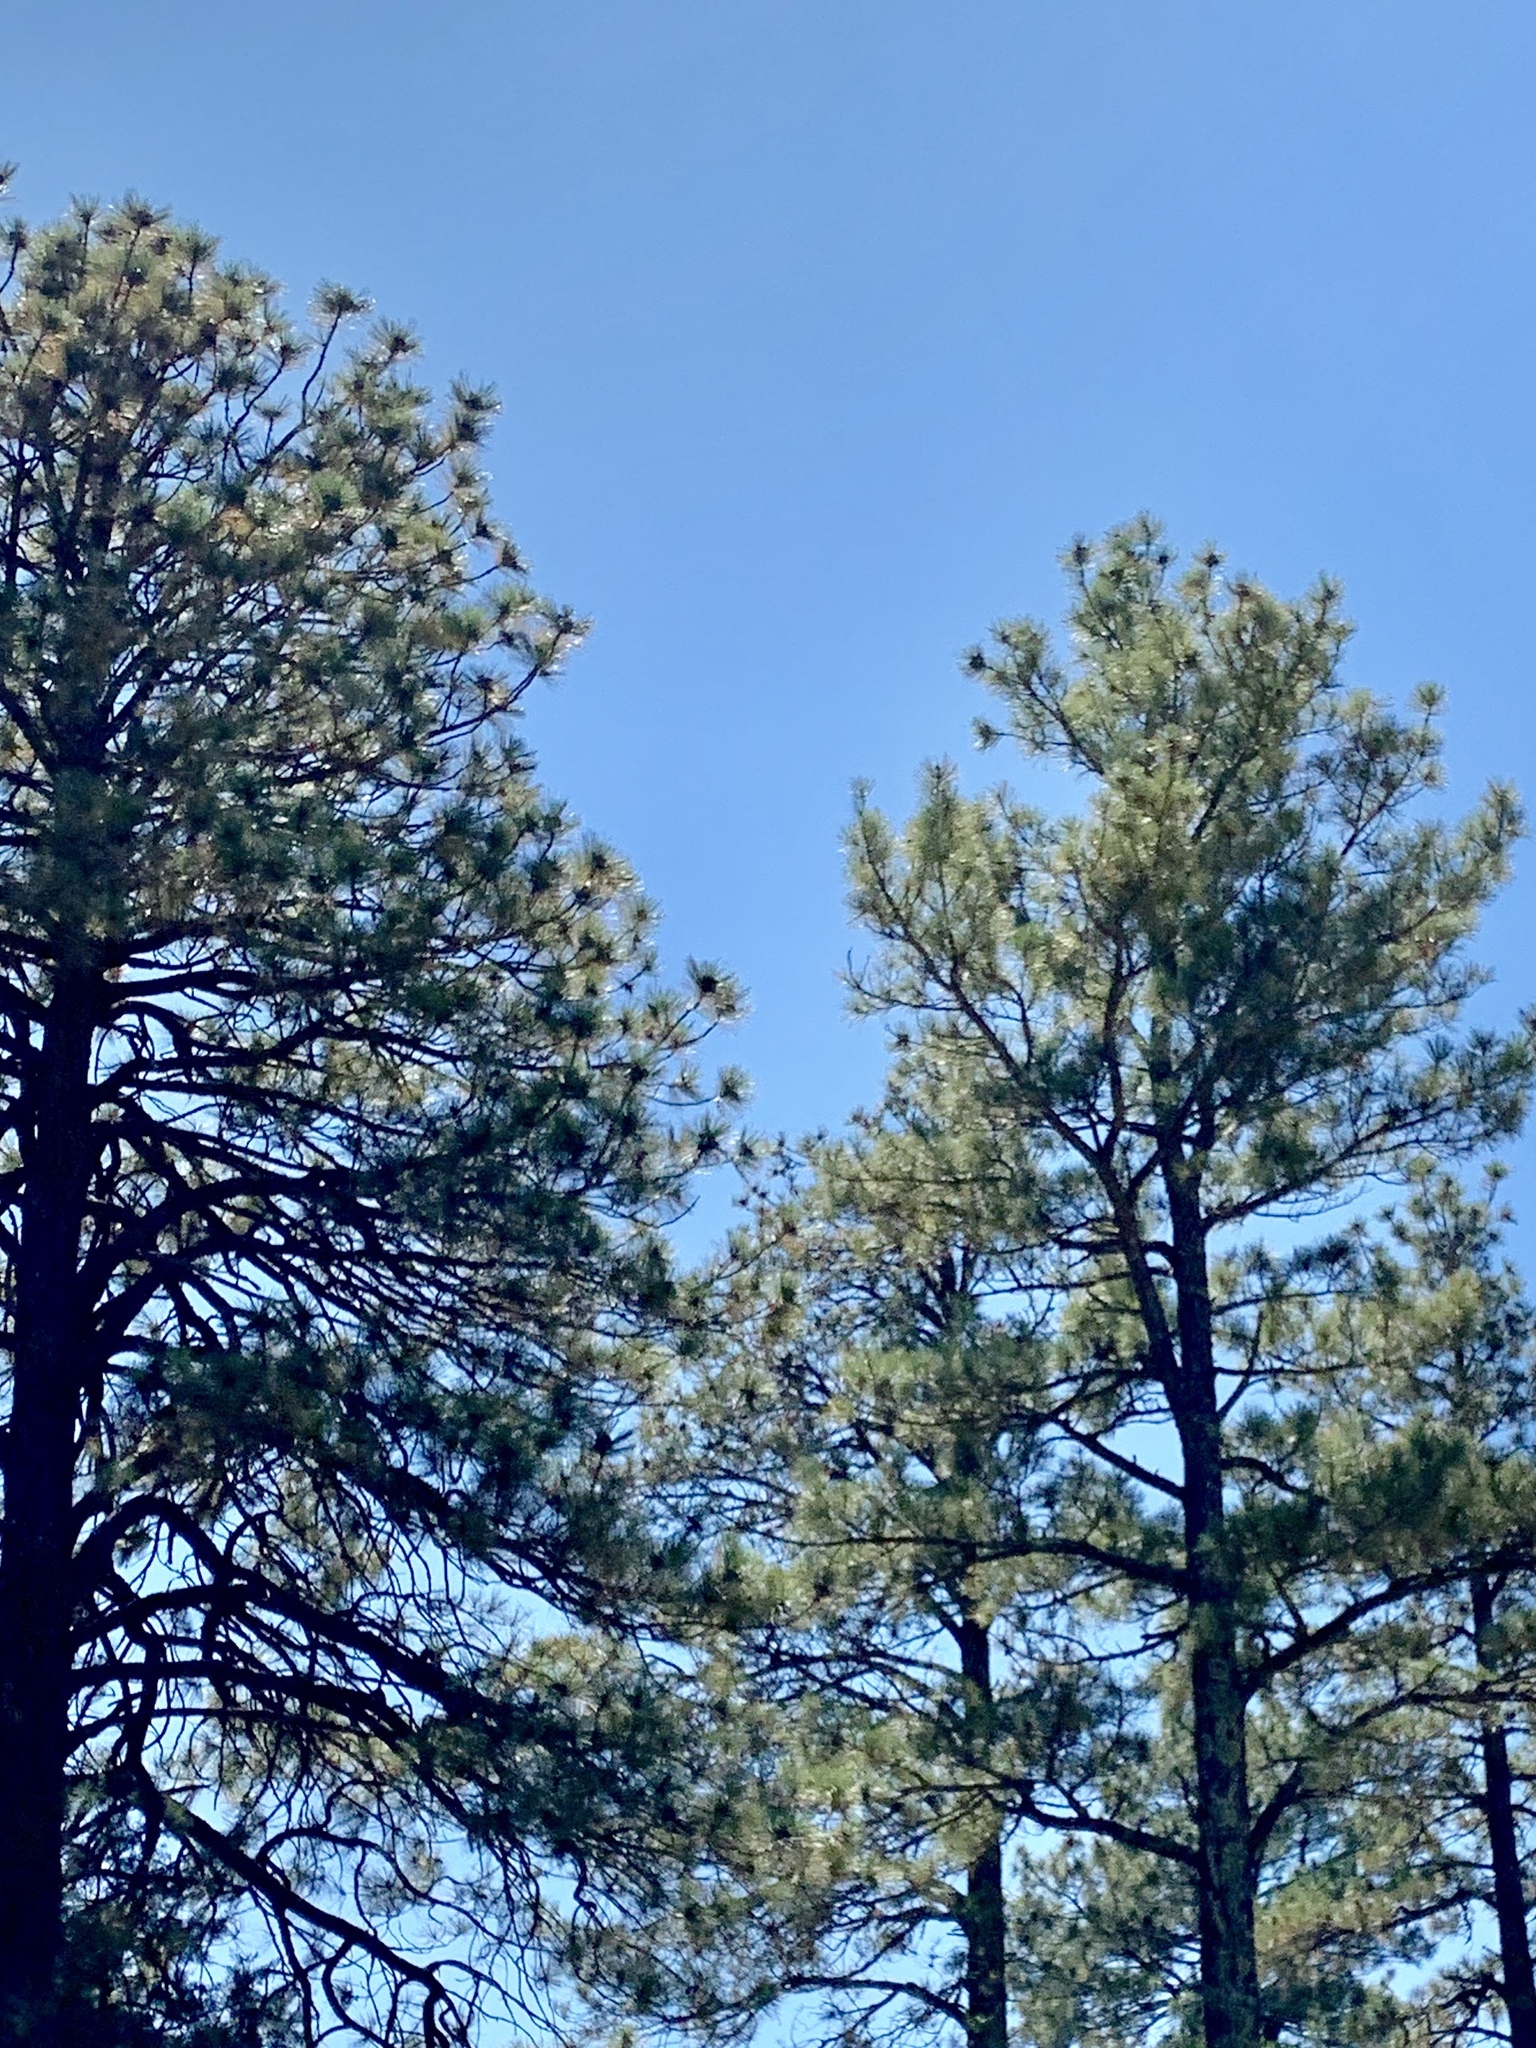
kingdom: Plantae
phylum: Tracheophyta
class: Pinopsida
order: Pinales
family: Pinaceae
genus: Pinus
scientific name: Pinus ponderosa
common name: Western yellow-pine
